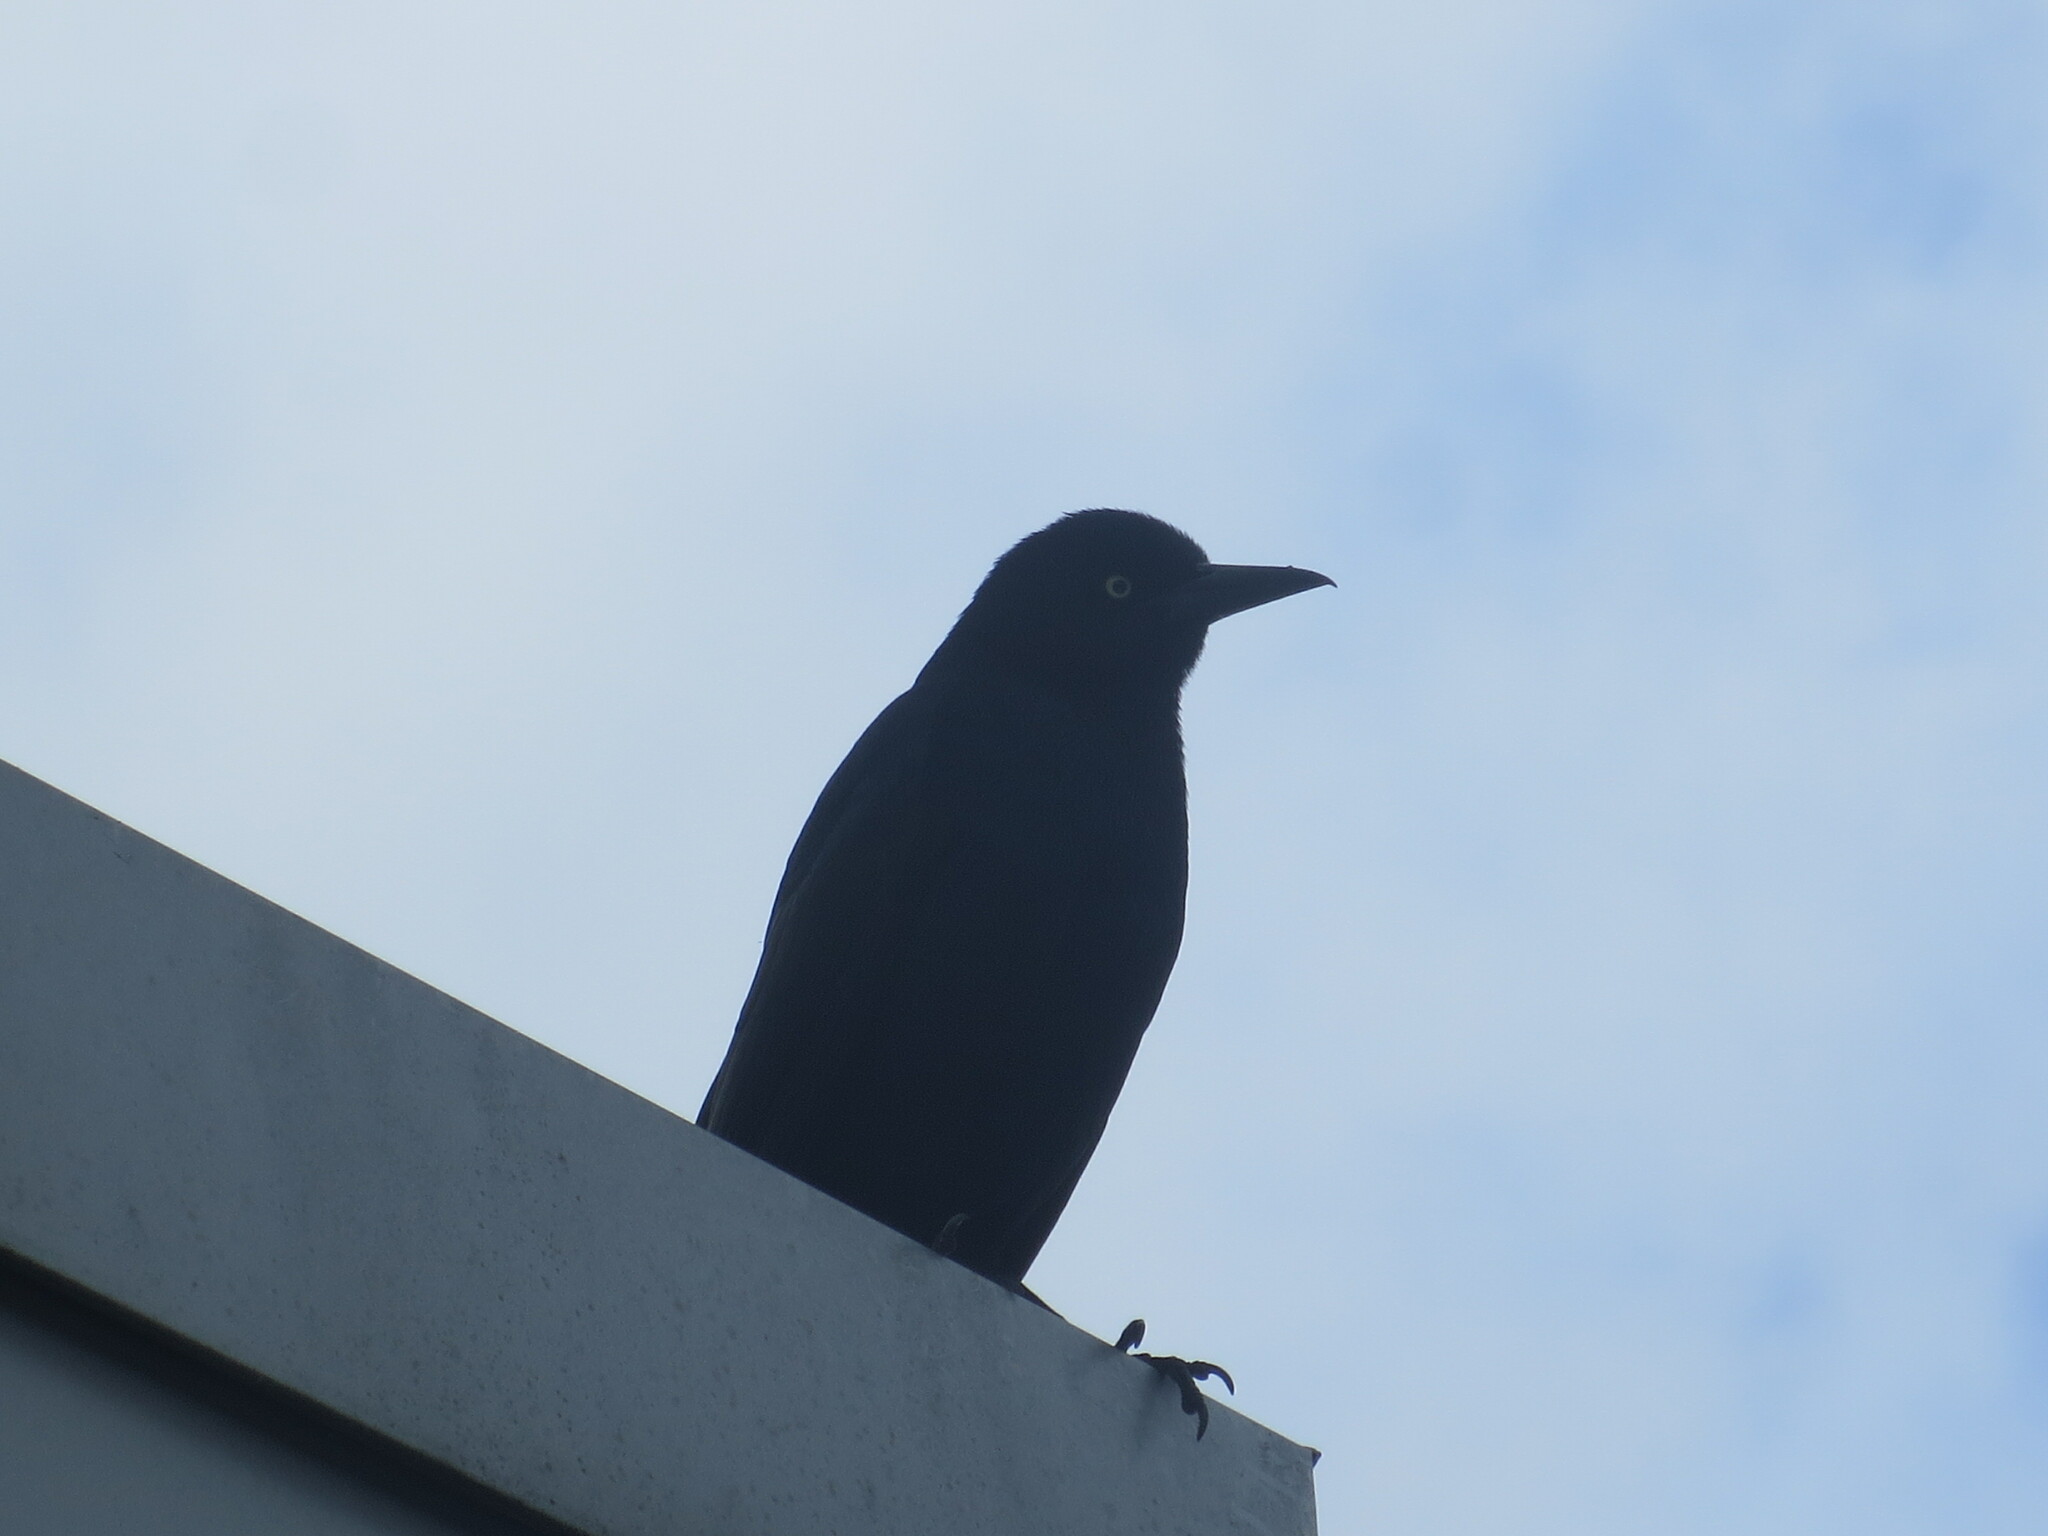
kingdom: Animalia
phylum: Chordata
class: Aves
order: Passeriformes
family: Icteridae
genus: Quiscalus
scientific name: Quiscalus major
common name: Boat-tailed grackle
